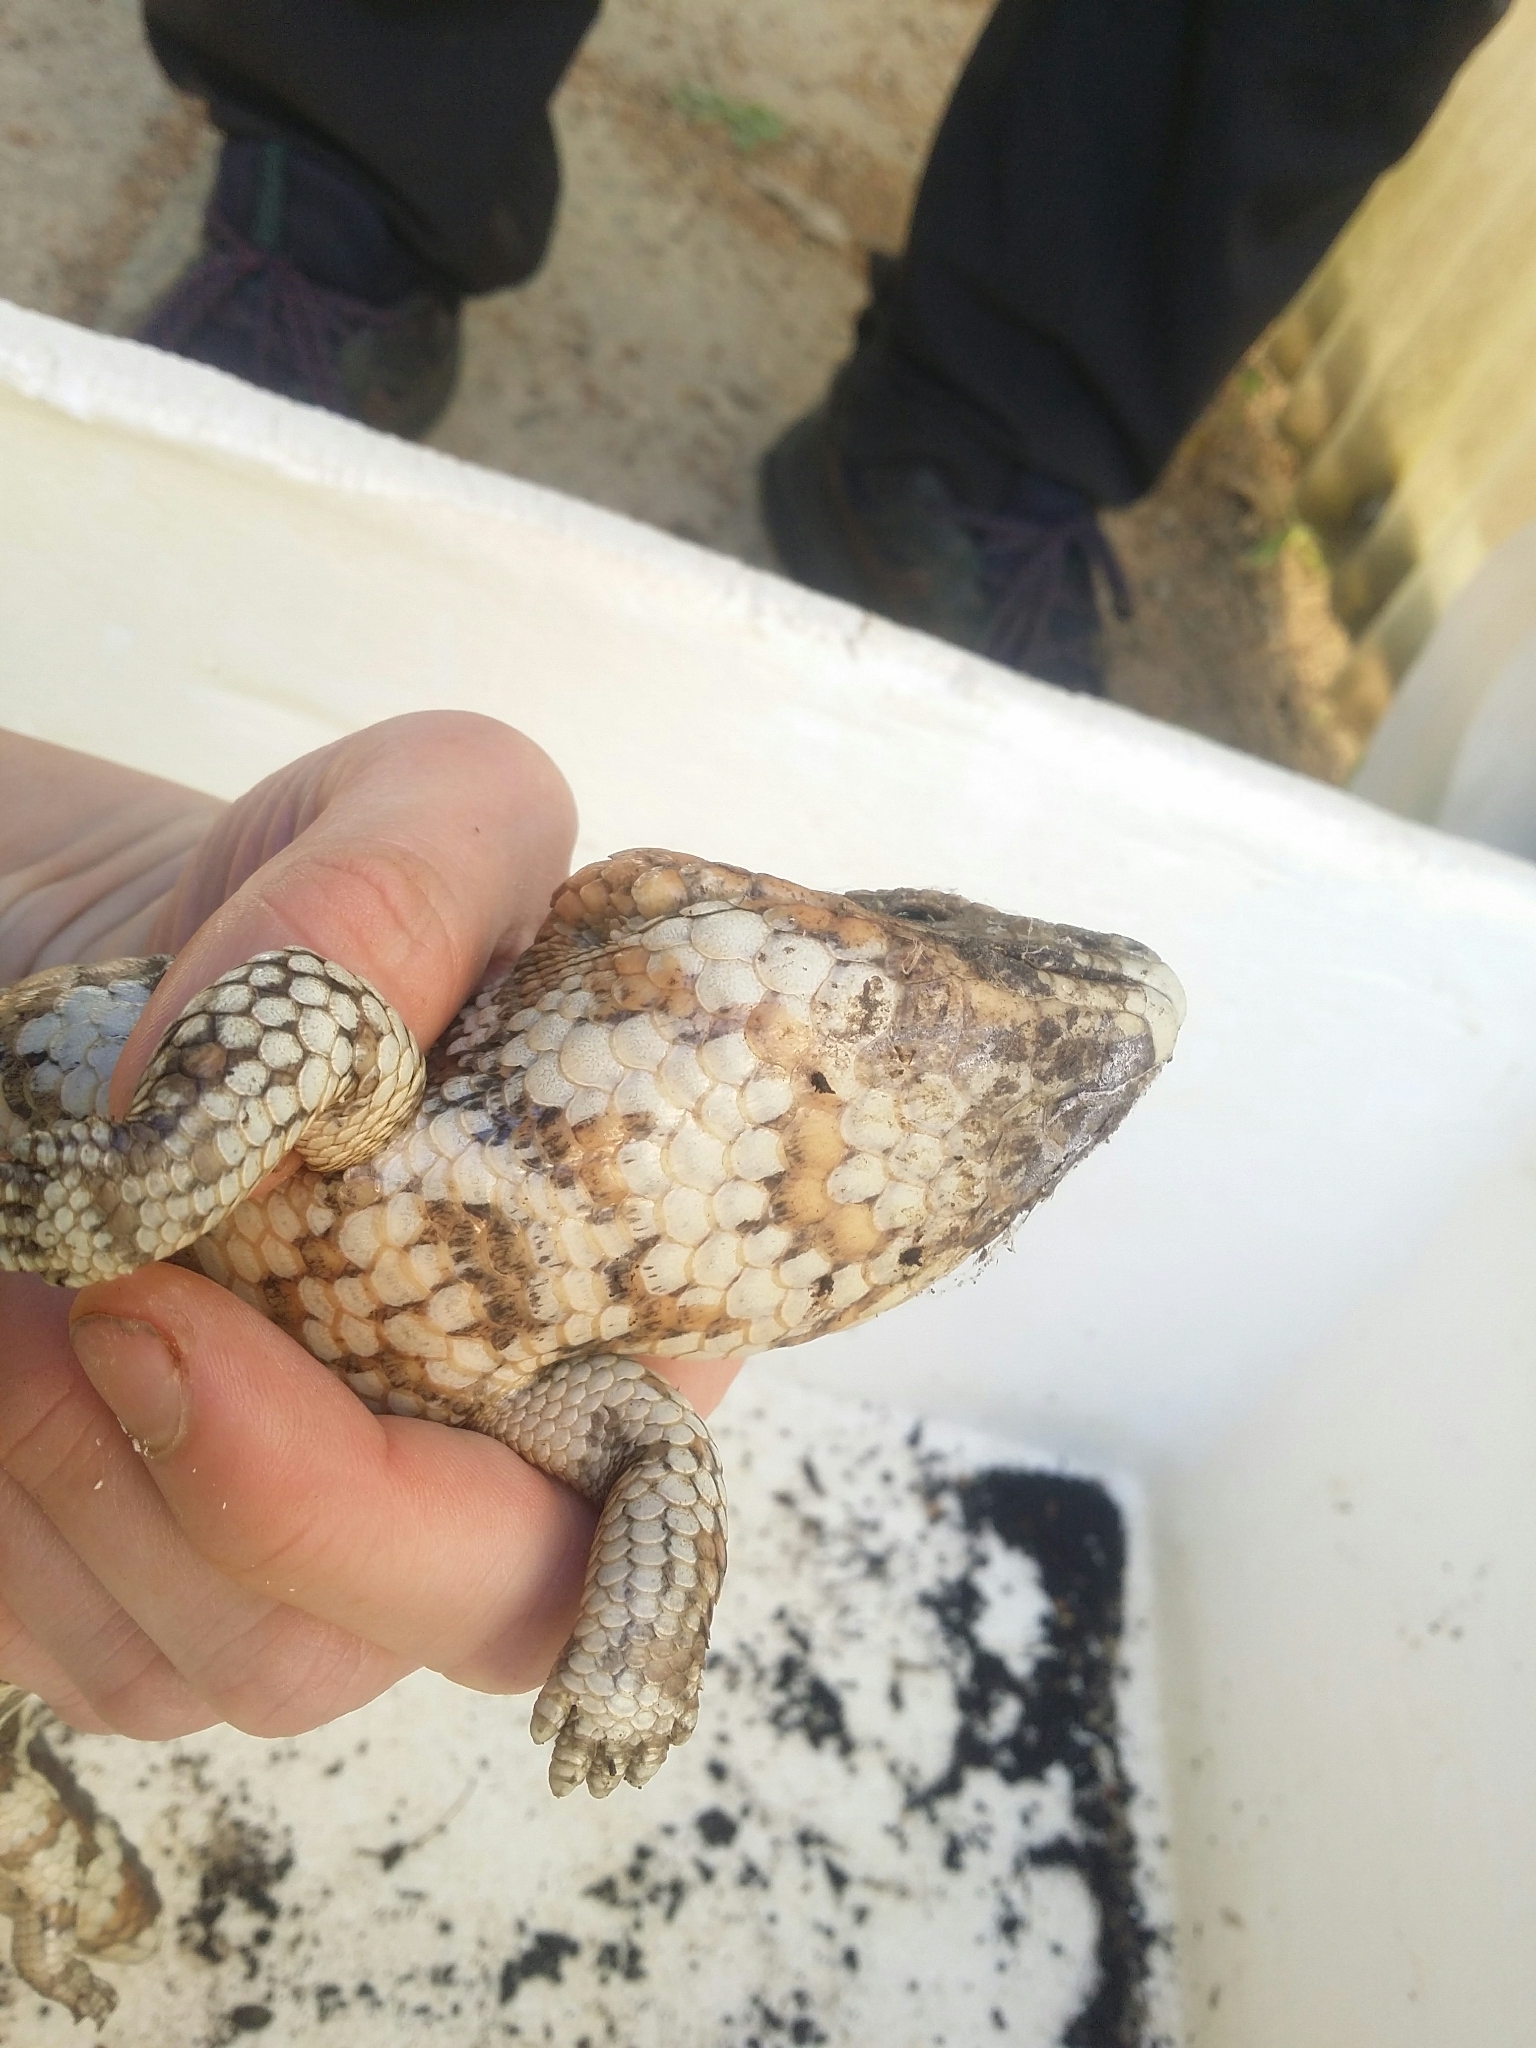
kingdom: Animalia
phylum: Chordata
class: Squamata
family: Scincidae
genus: Tiliqua
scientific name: Tiliqua rugosa
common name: Pinecone lizard
